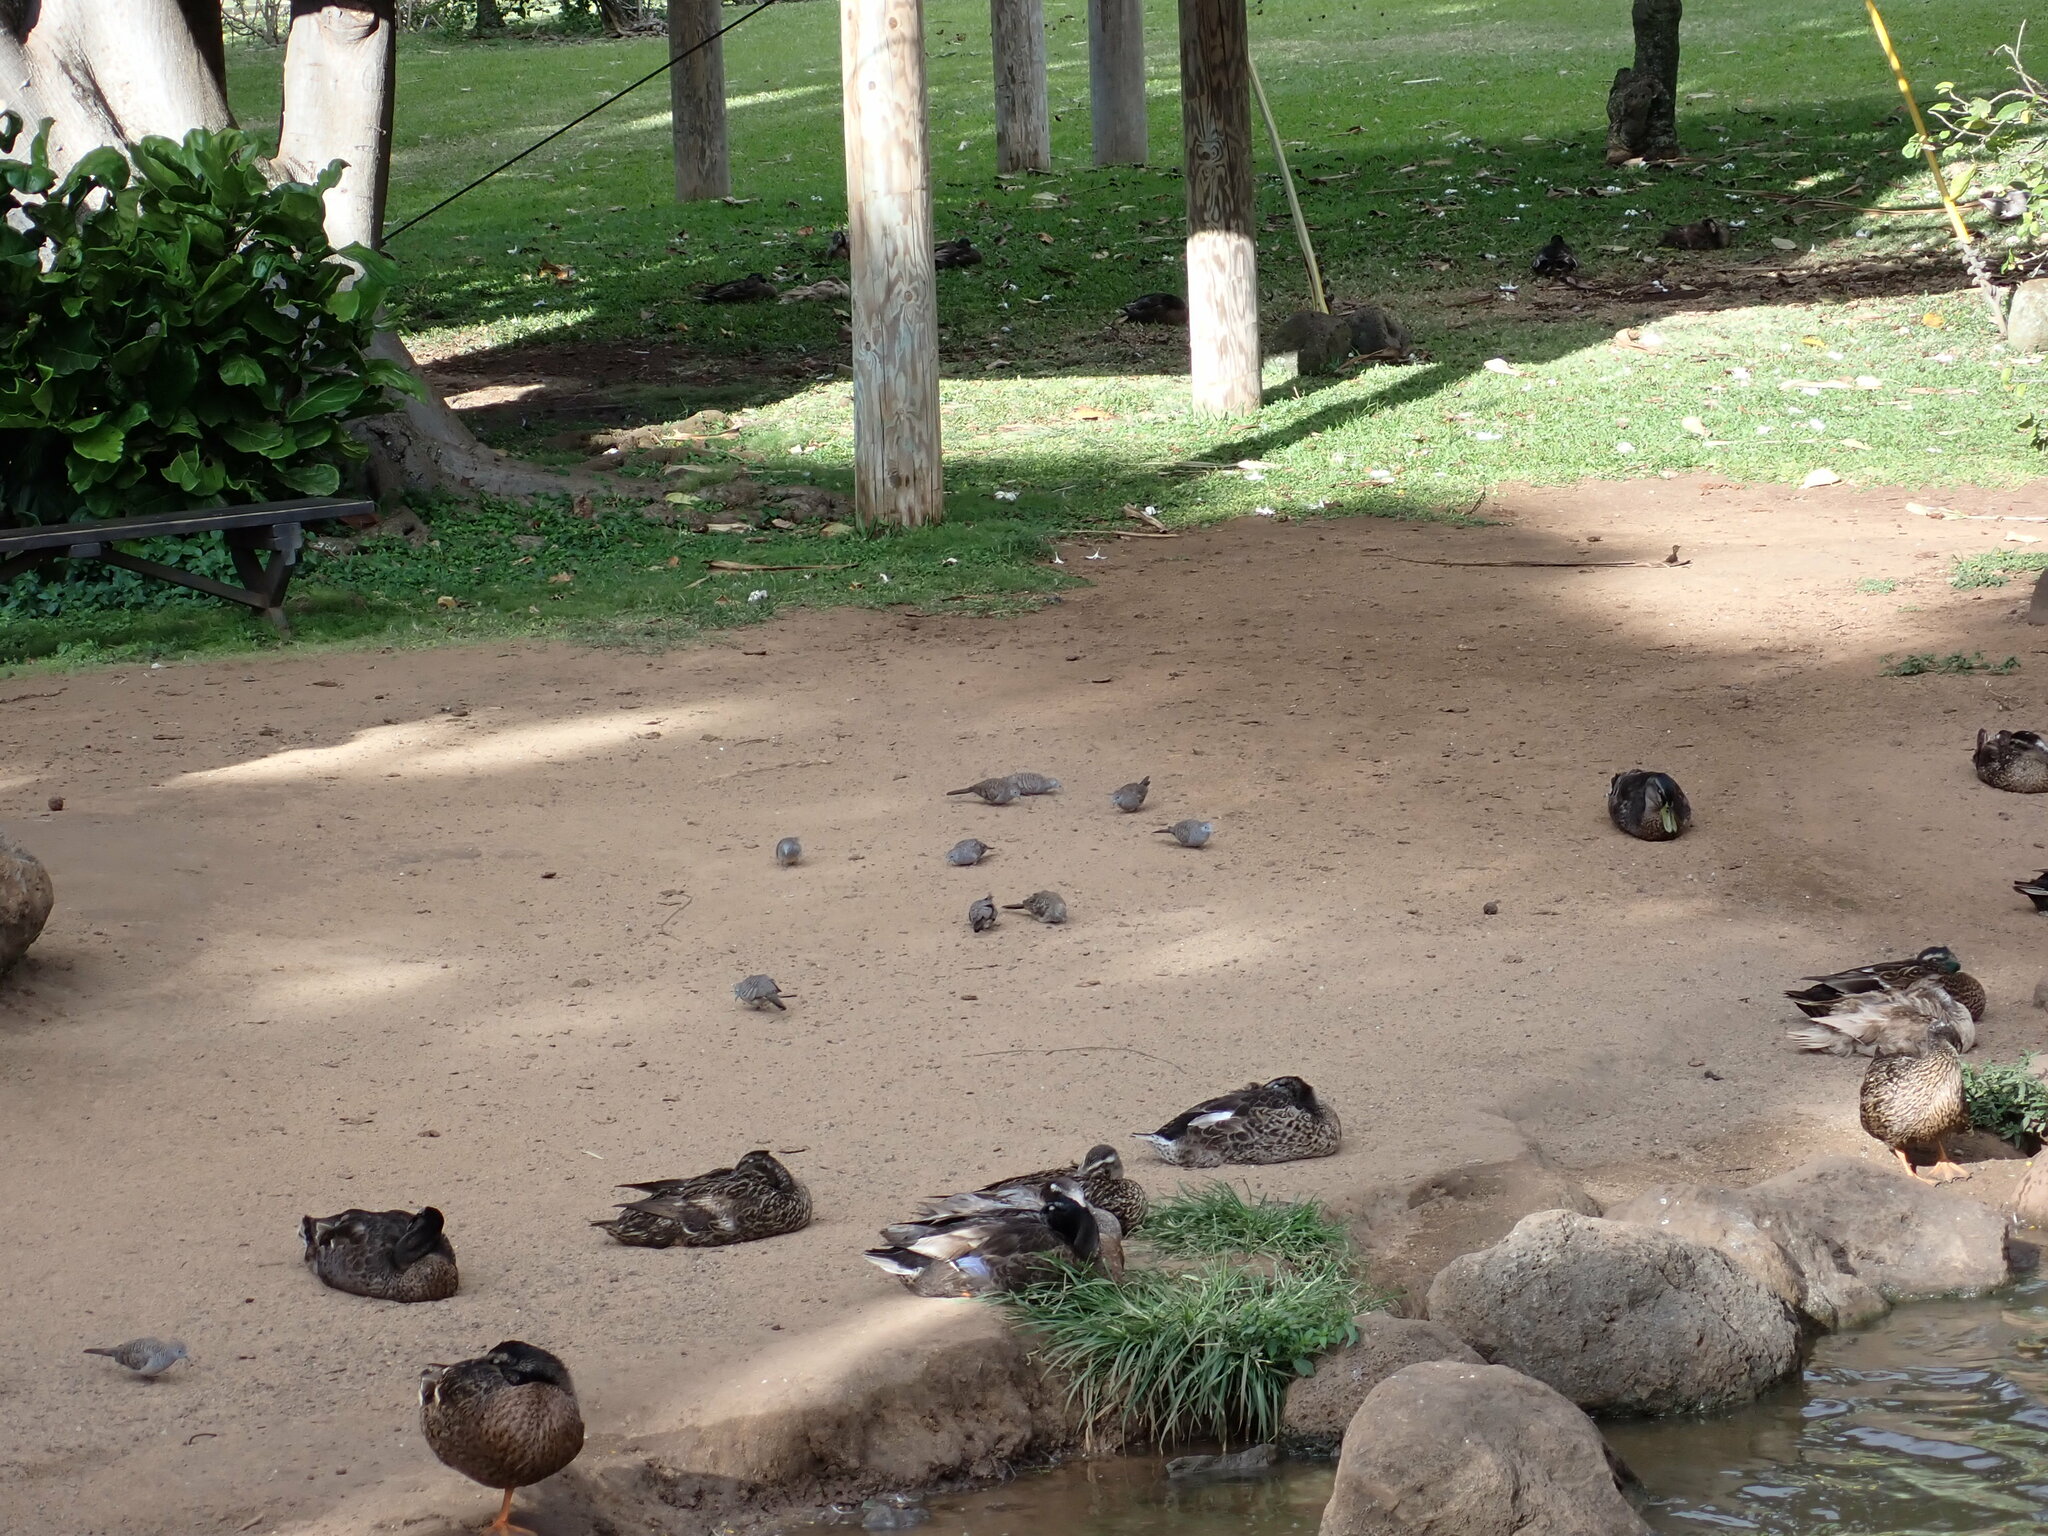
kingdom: Animalia
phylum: Chordata
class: Aves
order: Columbiformes
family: Columbidae
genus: Geopelia
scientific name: Geopelia striata
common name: Zebra dove
